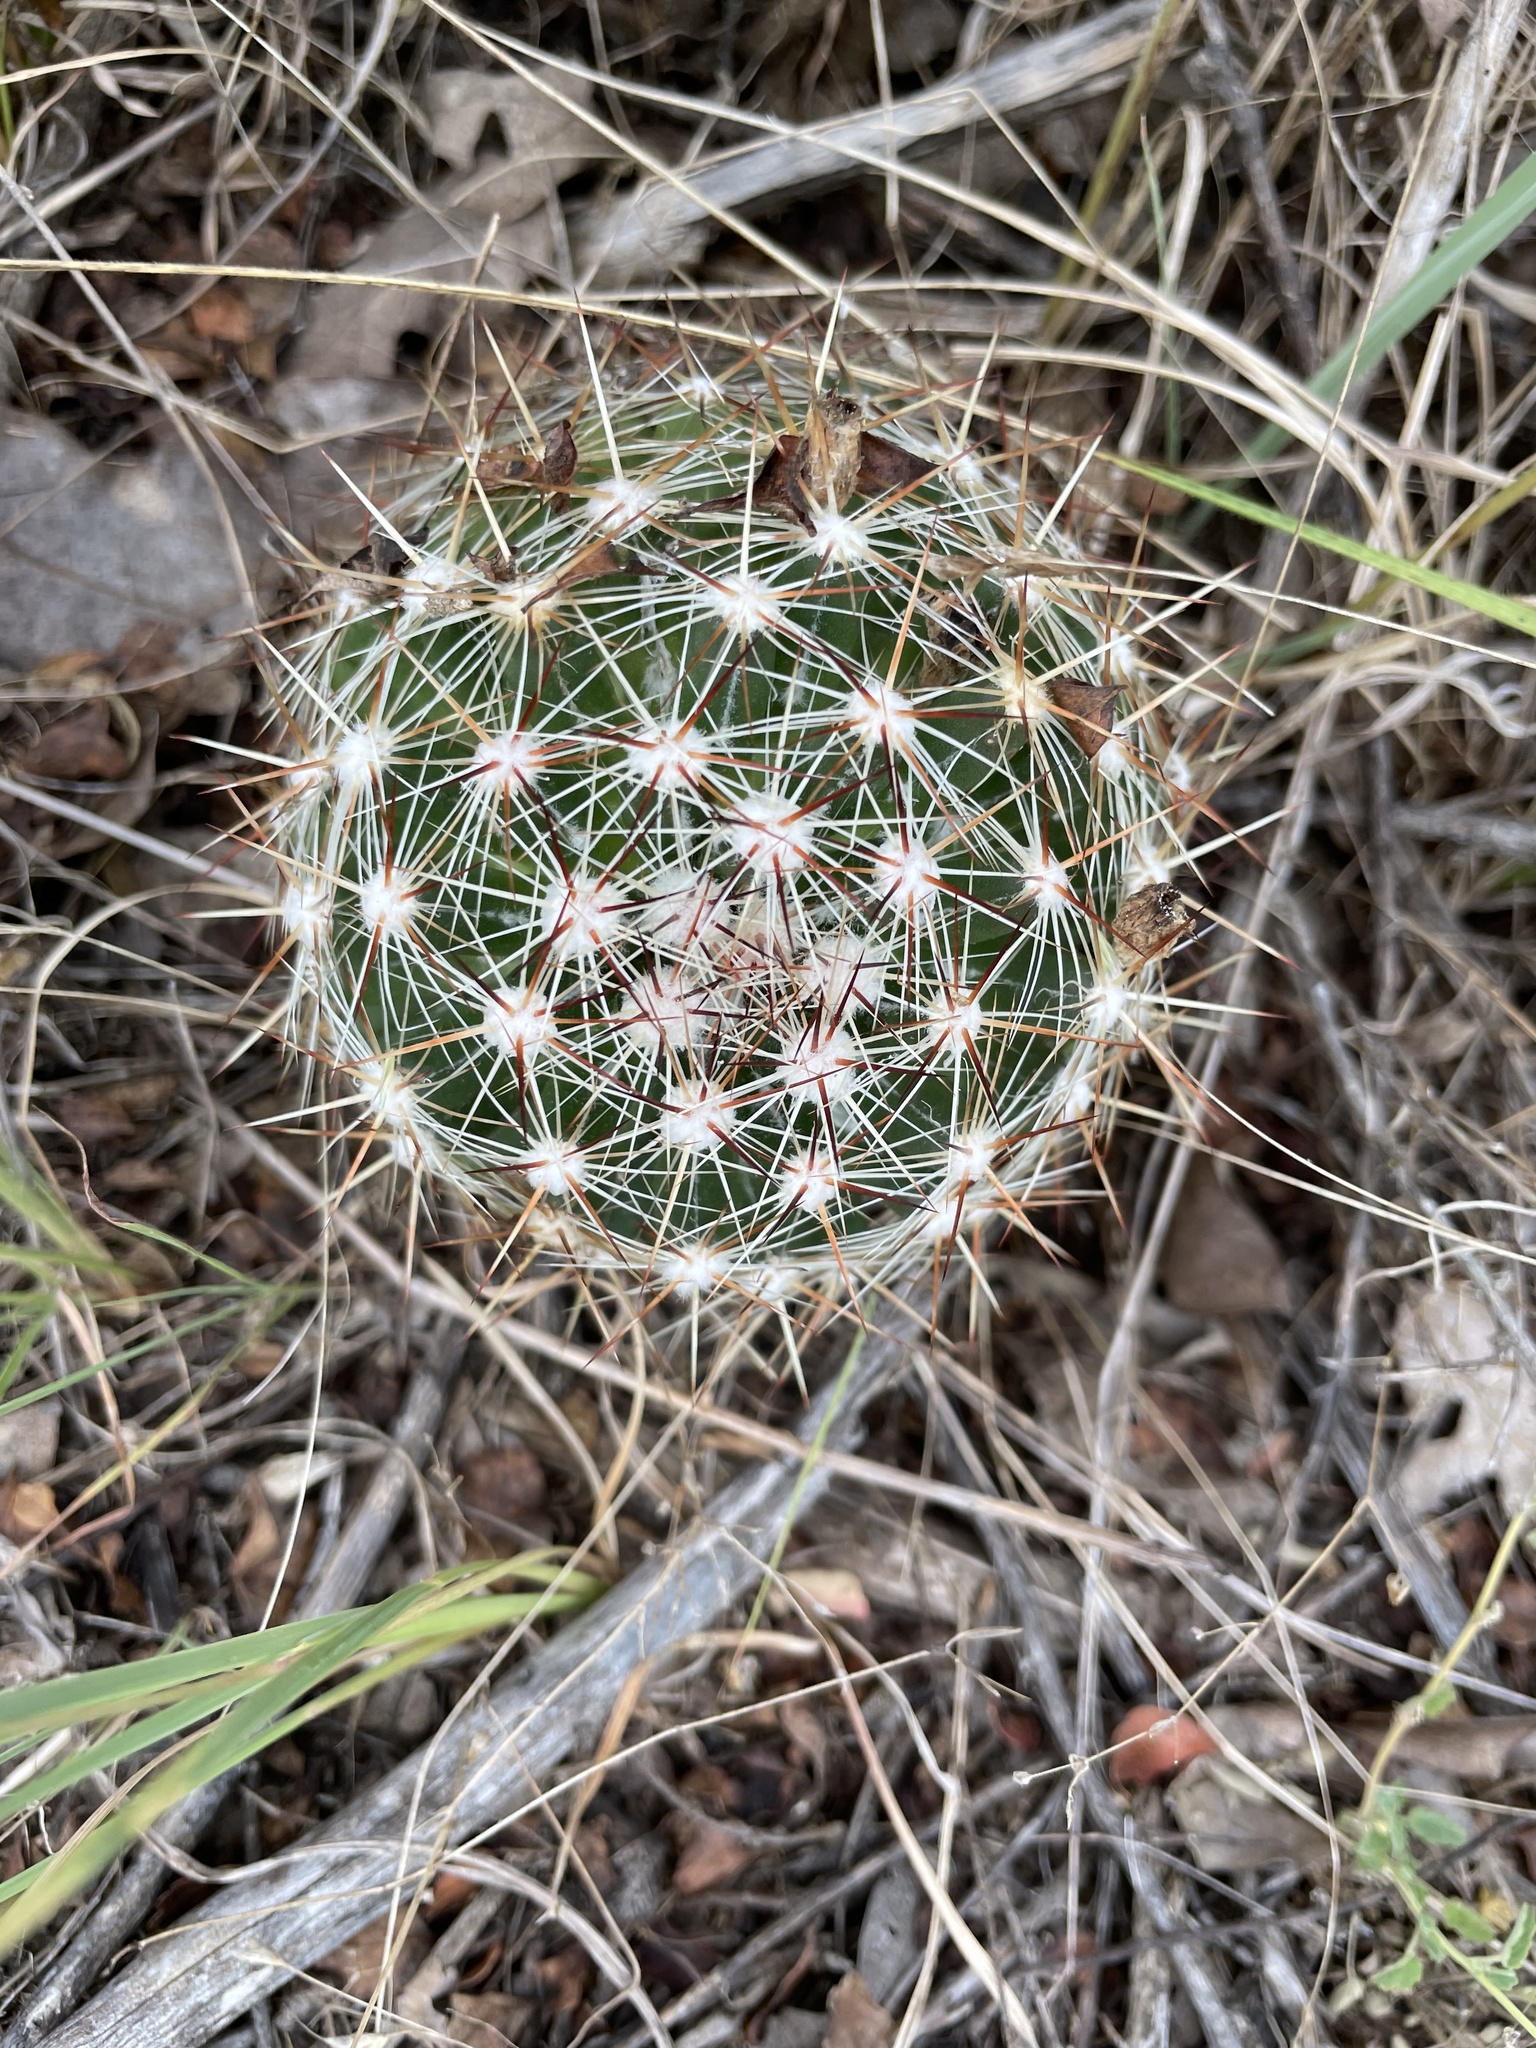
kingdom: Plantae
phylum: Tracheophyta
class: Magnoliopsida
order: Caryophyllales
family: Cactaceae
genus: Pelecyphora
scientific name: Pelecyphora vivipara
